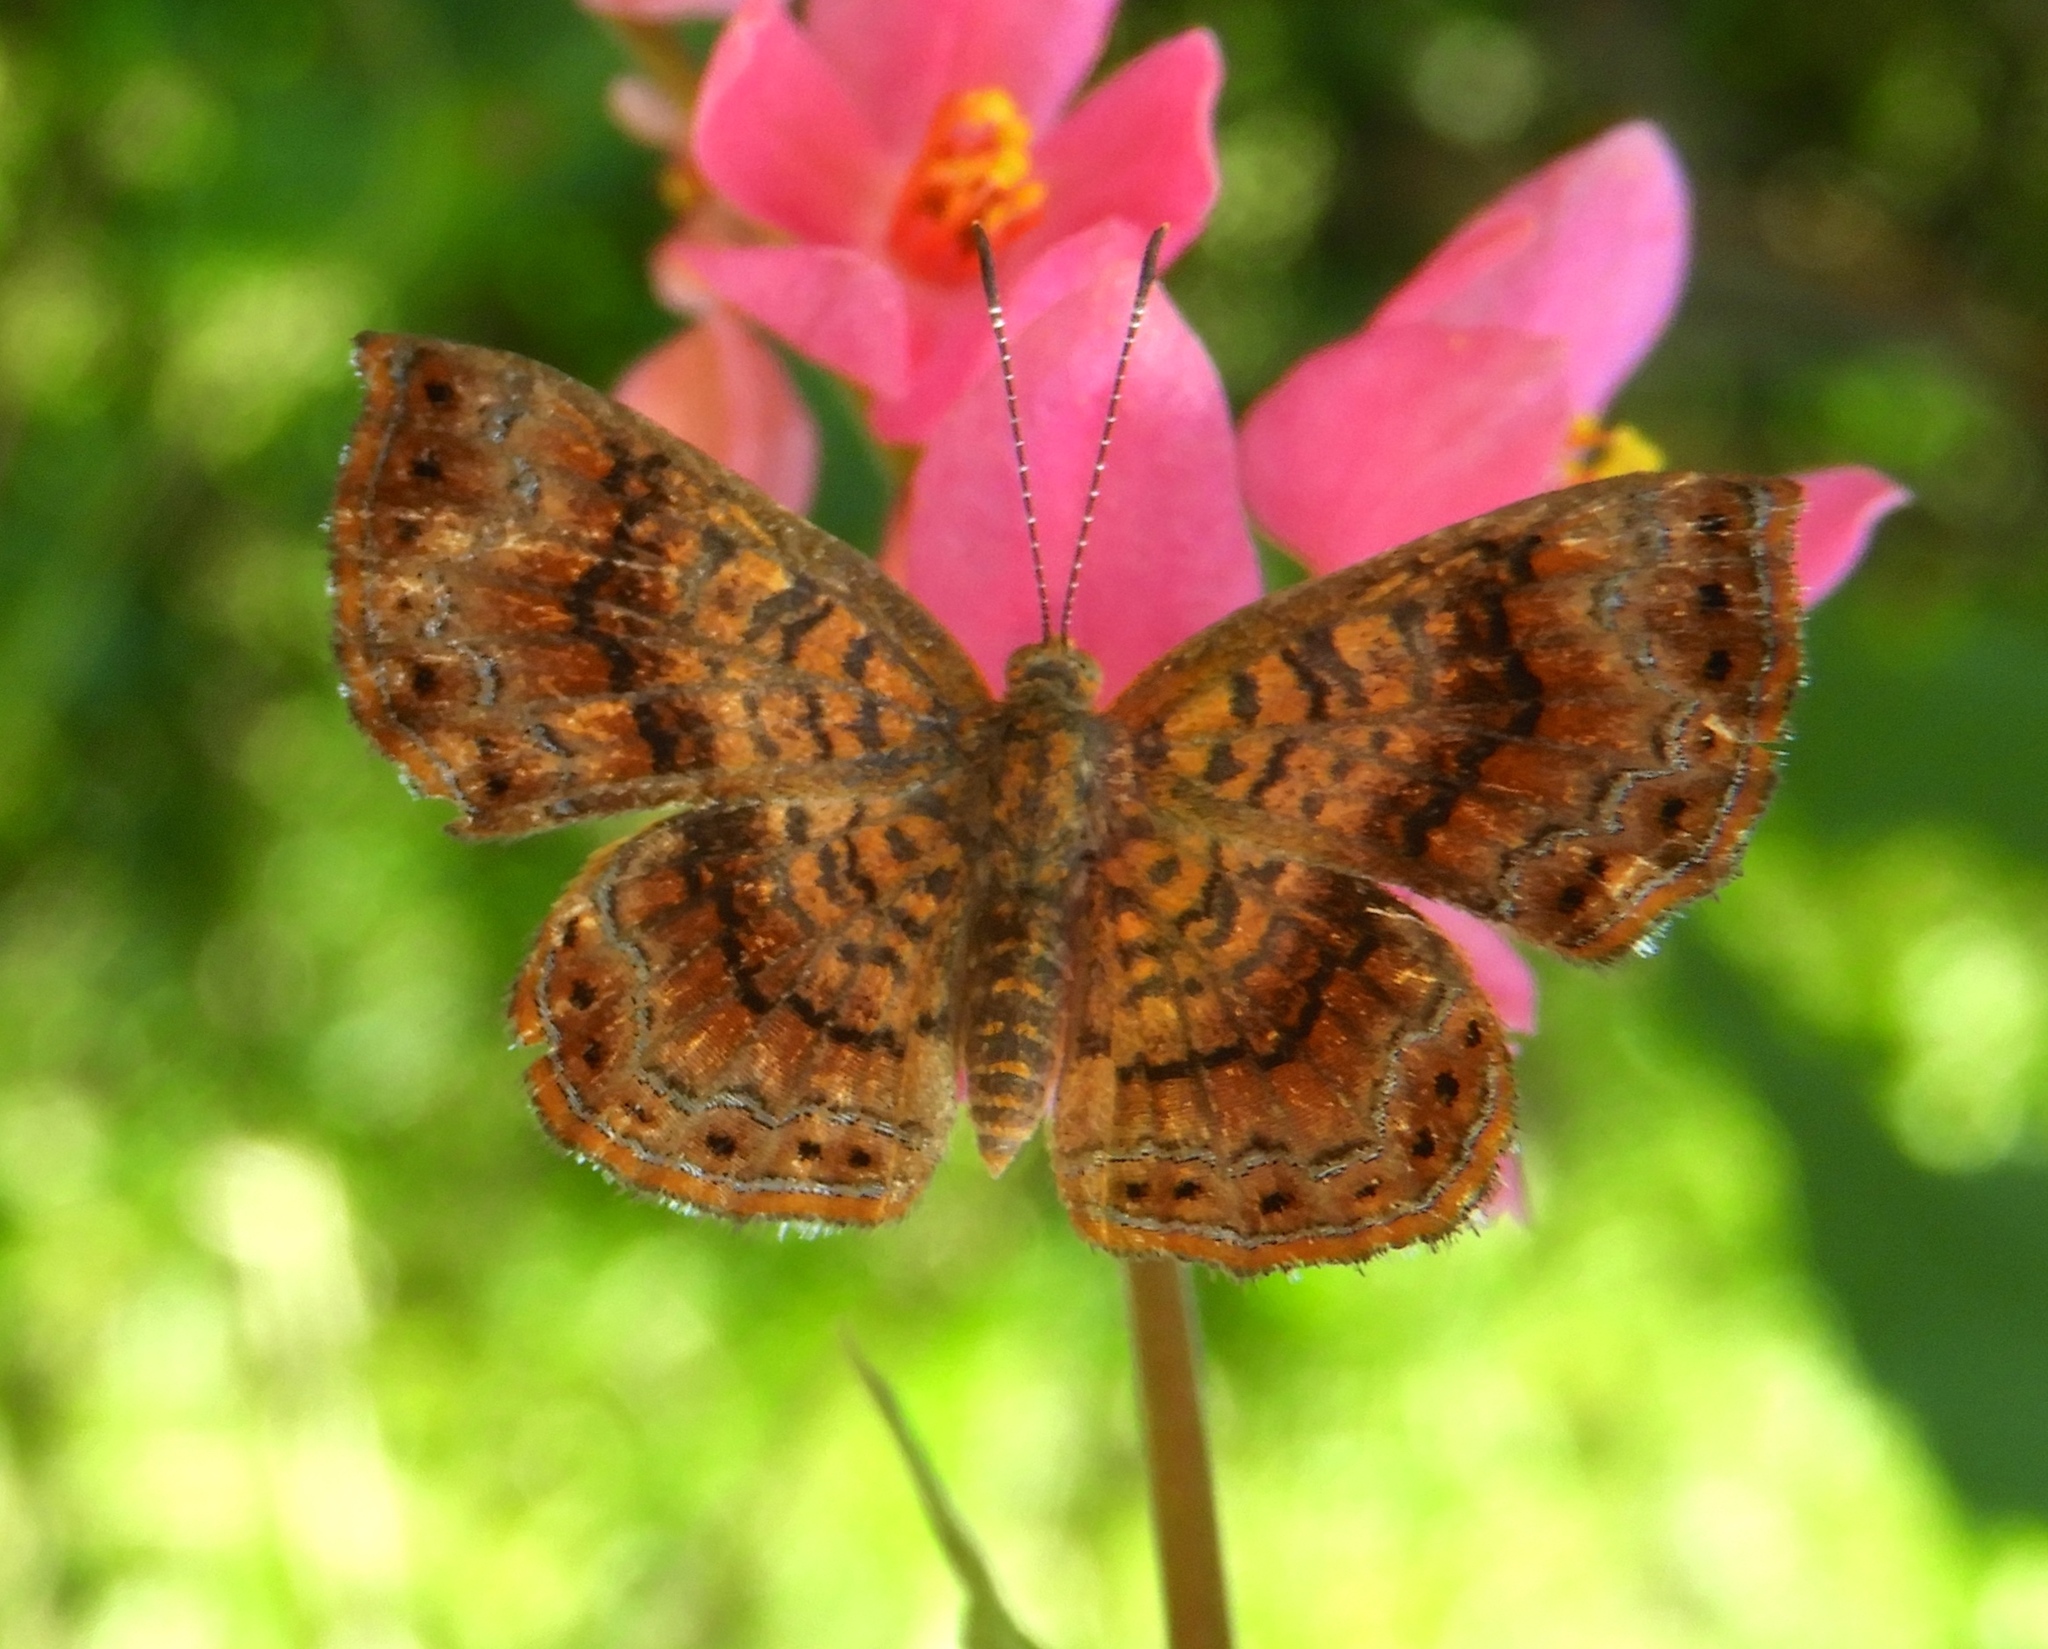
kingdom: Animalia
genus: Calephelis
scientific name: Calephelis
